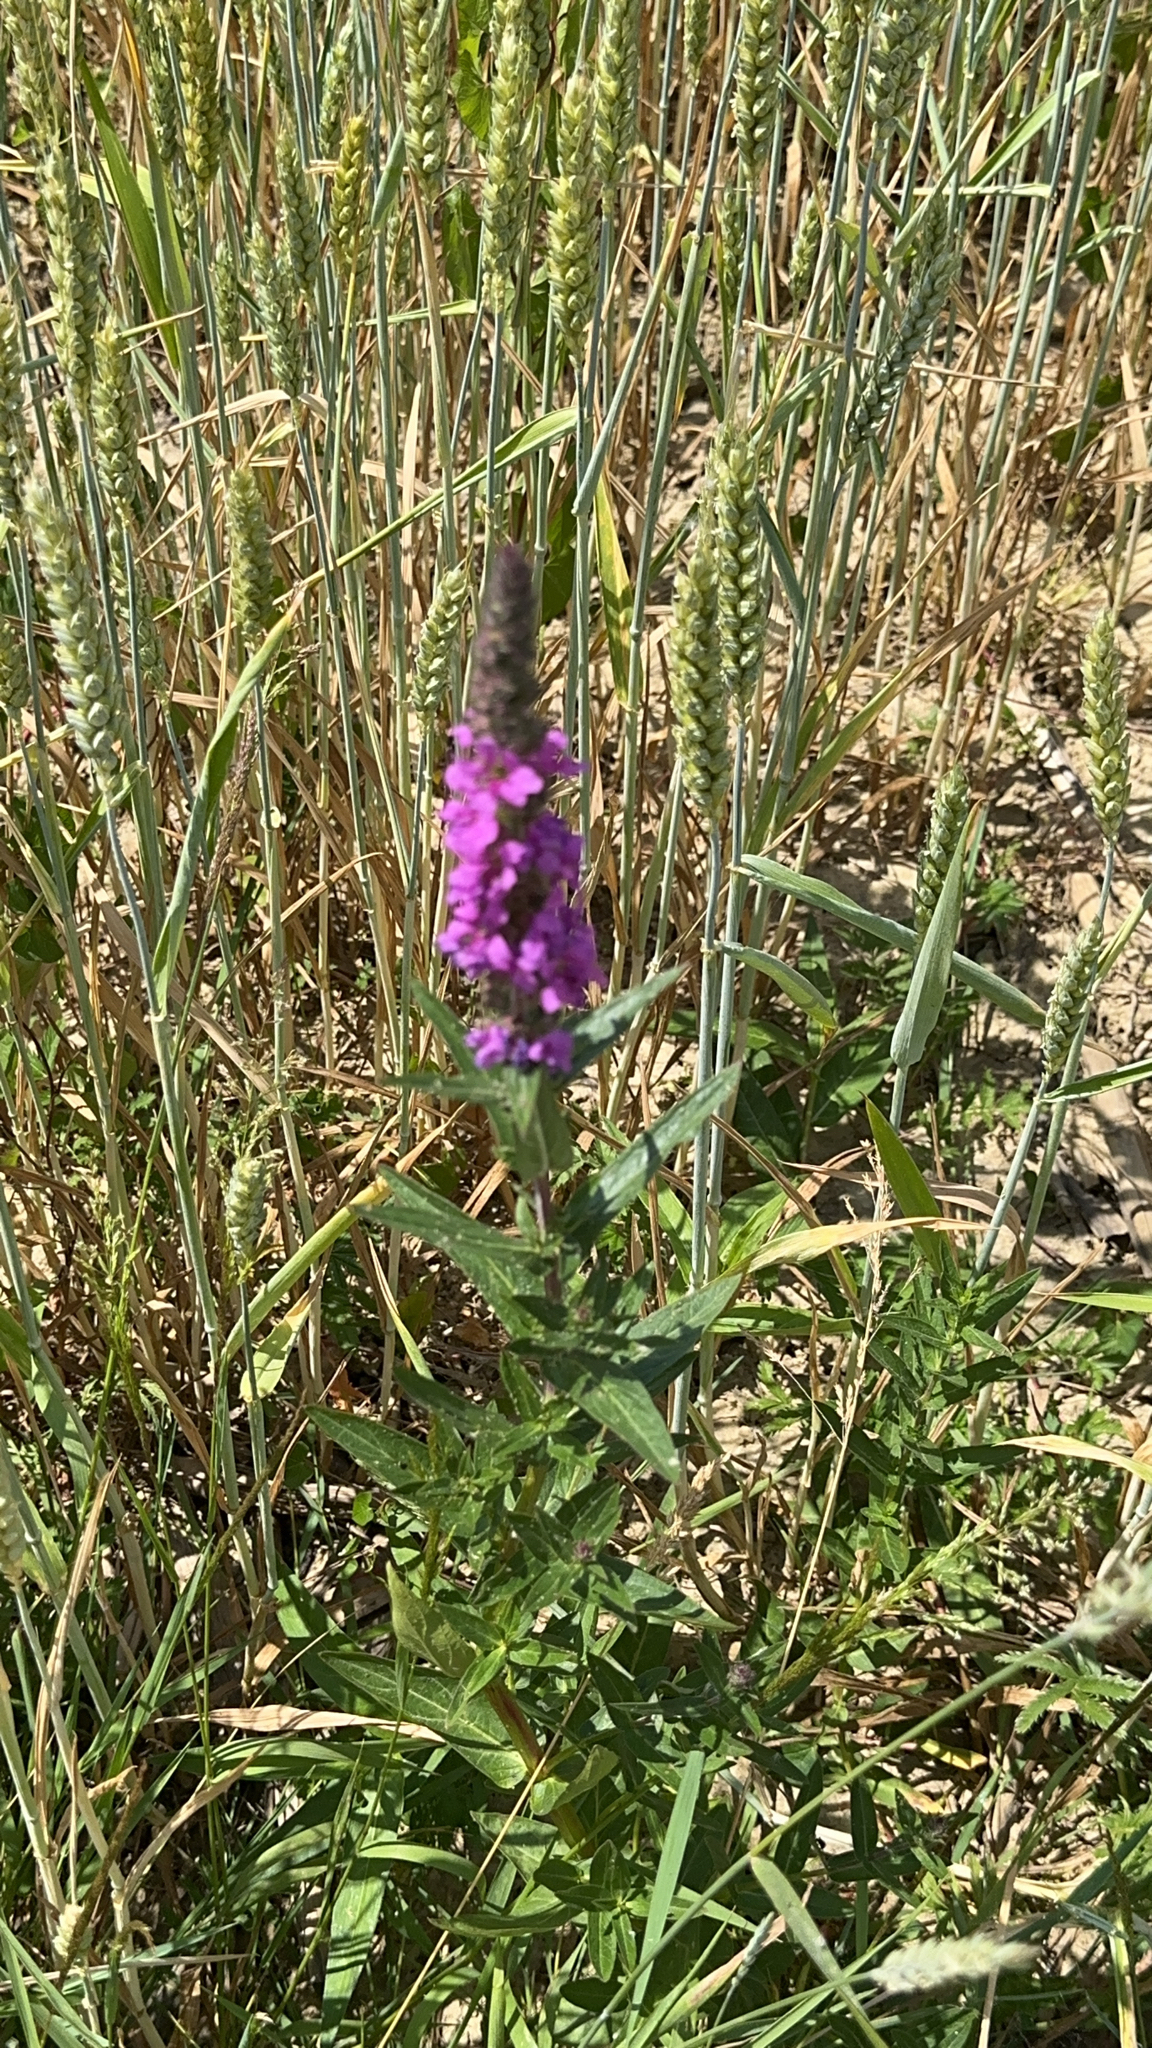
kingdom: Plantae
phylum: Tracheophyta
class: Magnoliopsida
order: Myrtales
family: Lythraceae
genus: Lythrum
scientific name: Lythrum salicaria
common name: Purple loosestrife
